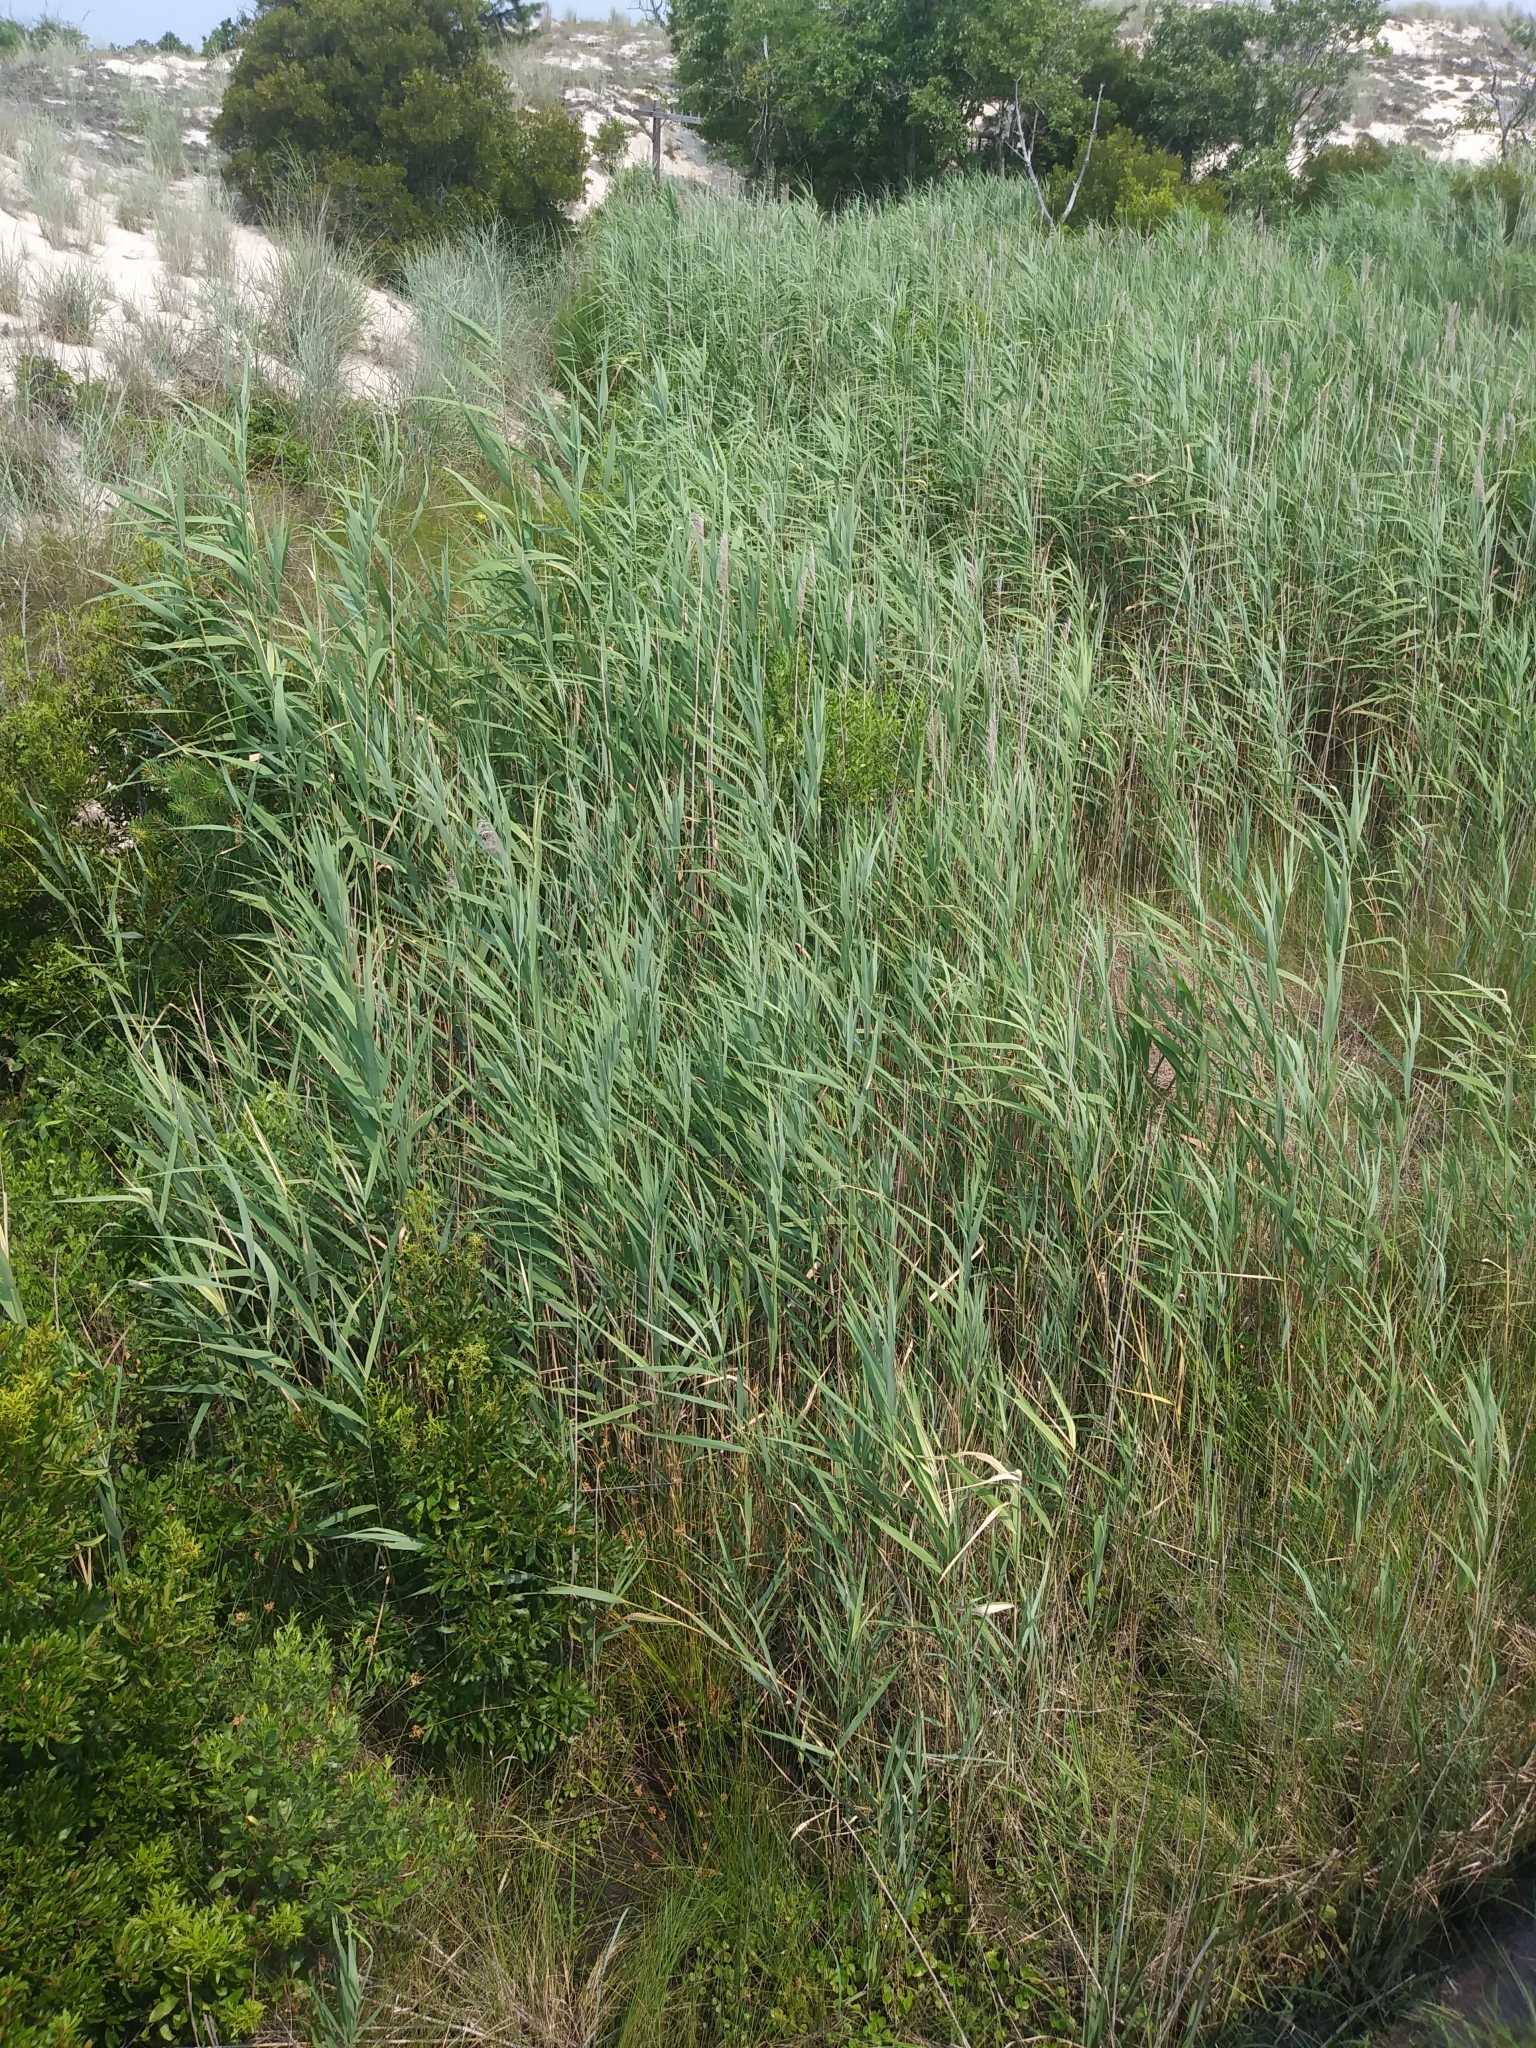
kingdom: Plantae
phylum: Tracheophyta
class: Liliopsida
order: Poales
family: Poaceae
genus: Phragmites
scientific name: Phragmites australis
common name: Common reed
